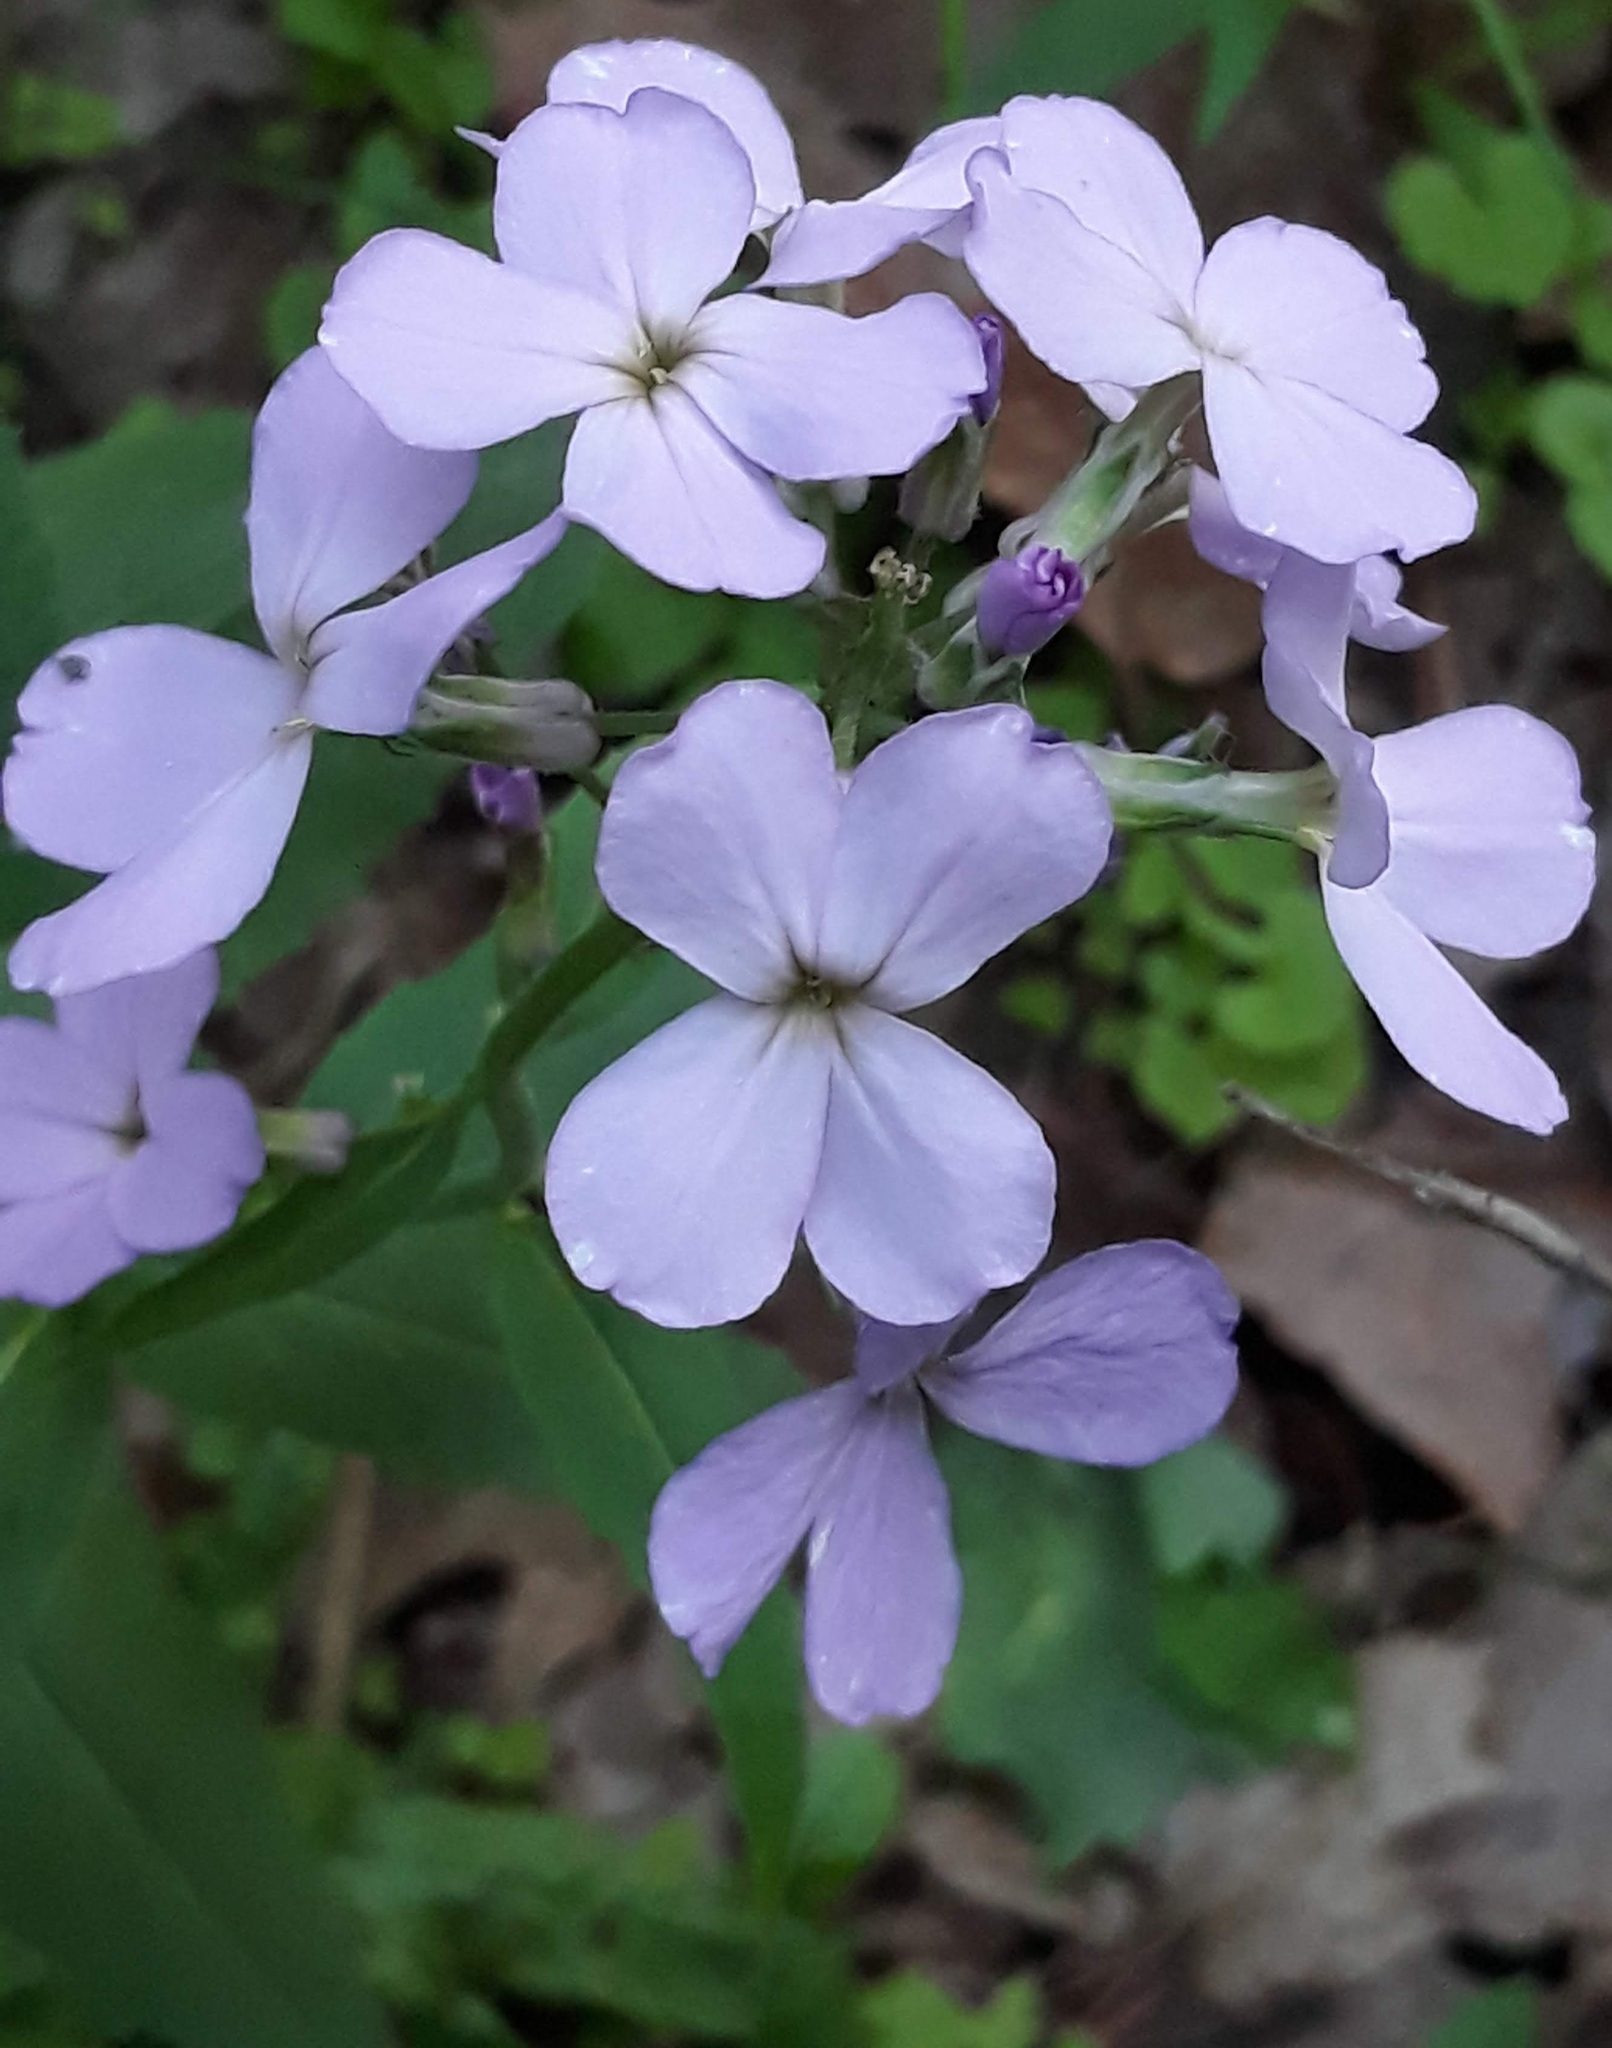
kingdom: Plantae
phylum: Tracheophyta
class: Magnoliopsida
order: Brassicales
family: Brassicaceae
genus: Hesperis
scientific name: Hesperis matronalis
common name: Dame's-violet
